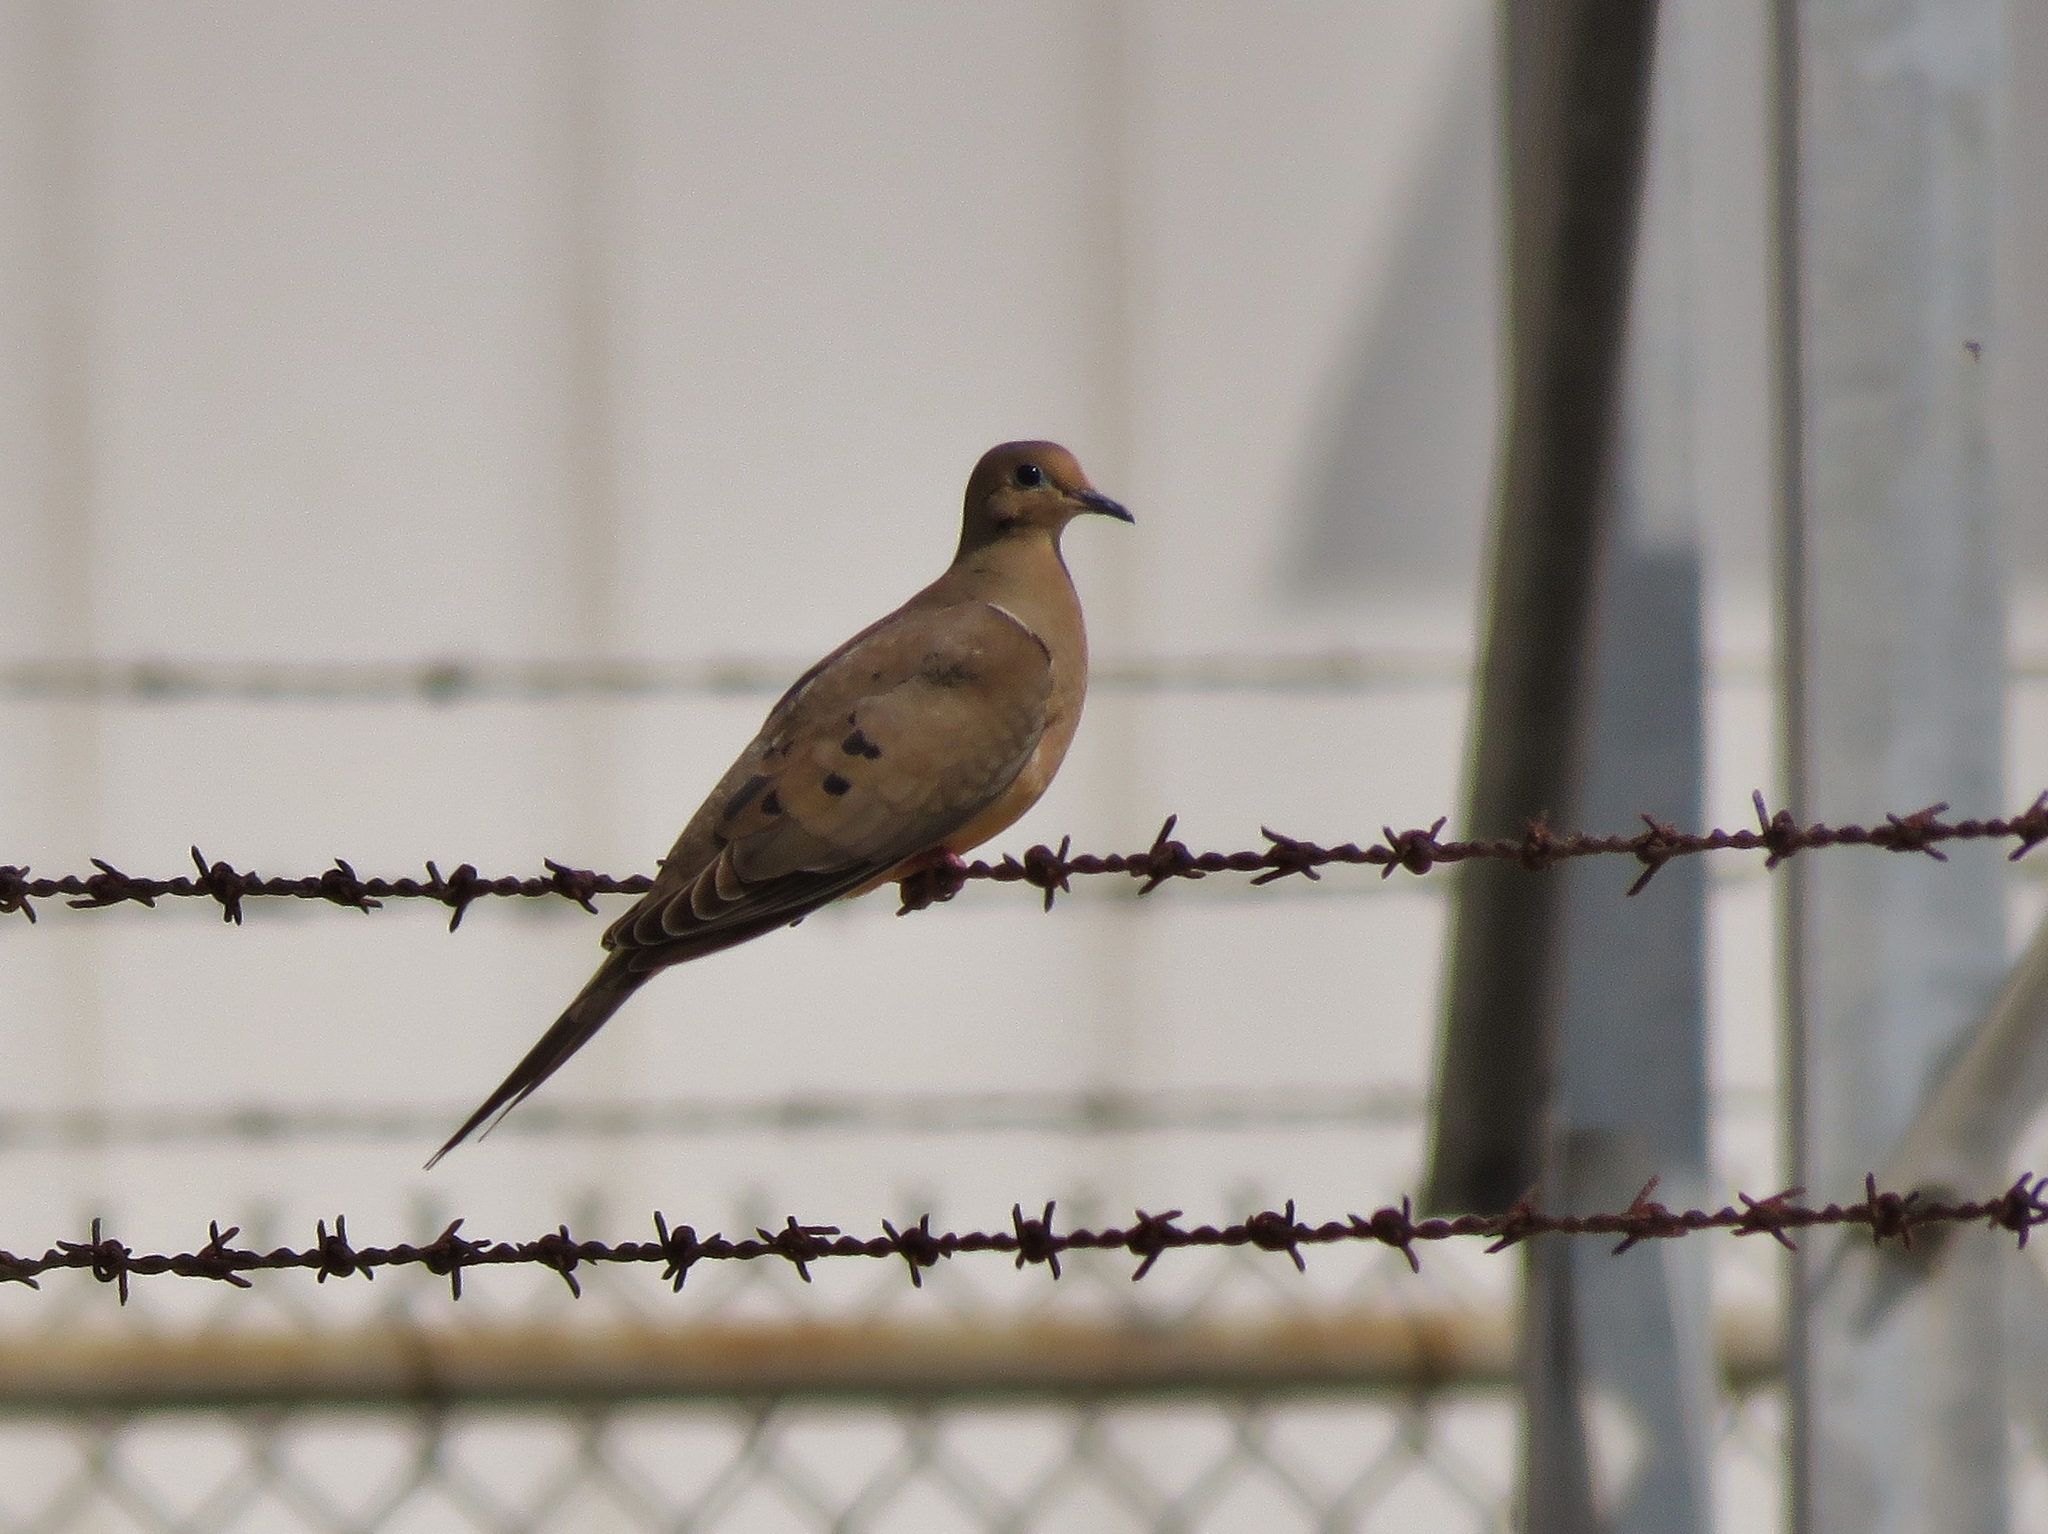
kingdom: Animalia
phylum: Chordata
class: Aves
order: Columbiformes
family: Columbidae
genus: Zenaida
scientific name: Zenaida macroura
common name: Mourning dove
